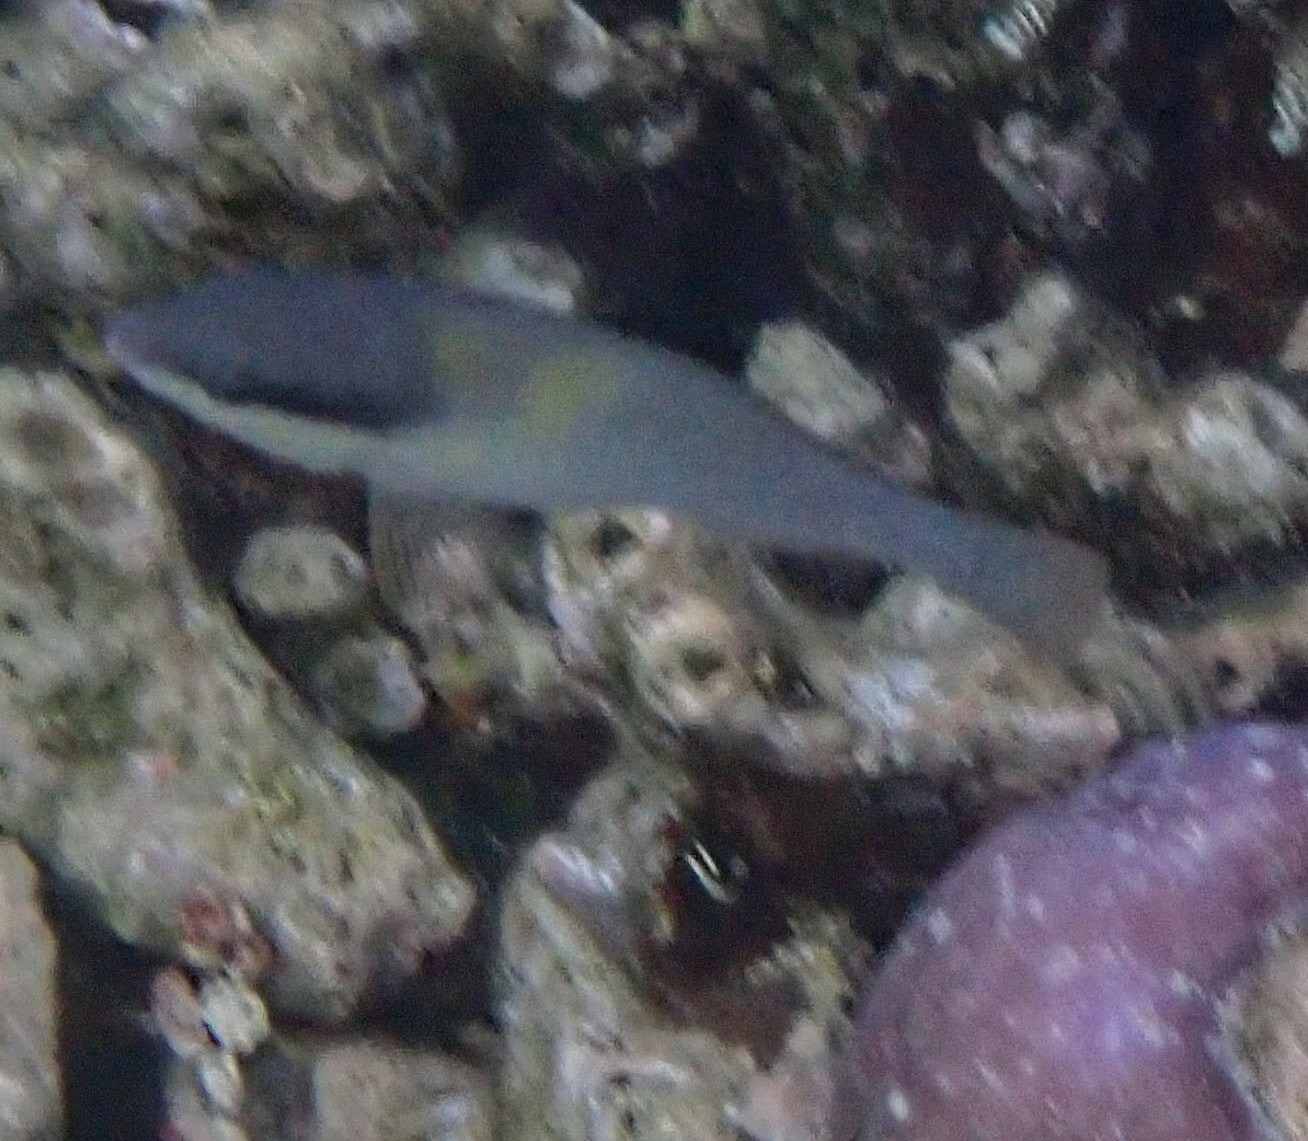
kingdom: Animalia
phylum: Chordata
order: Perciformes
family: Scaridae
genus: Scarus
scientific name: Scarus oviceps
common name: Blue parrotfish
